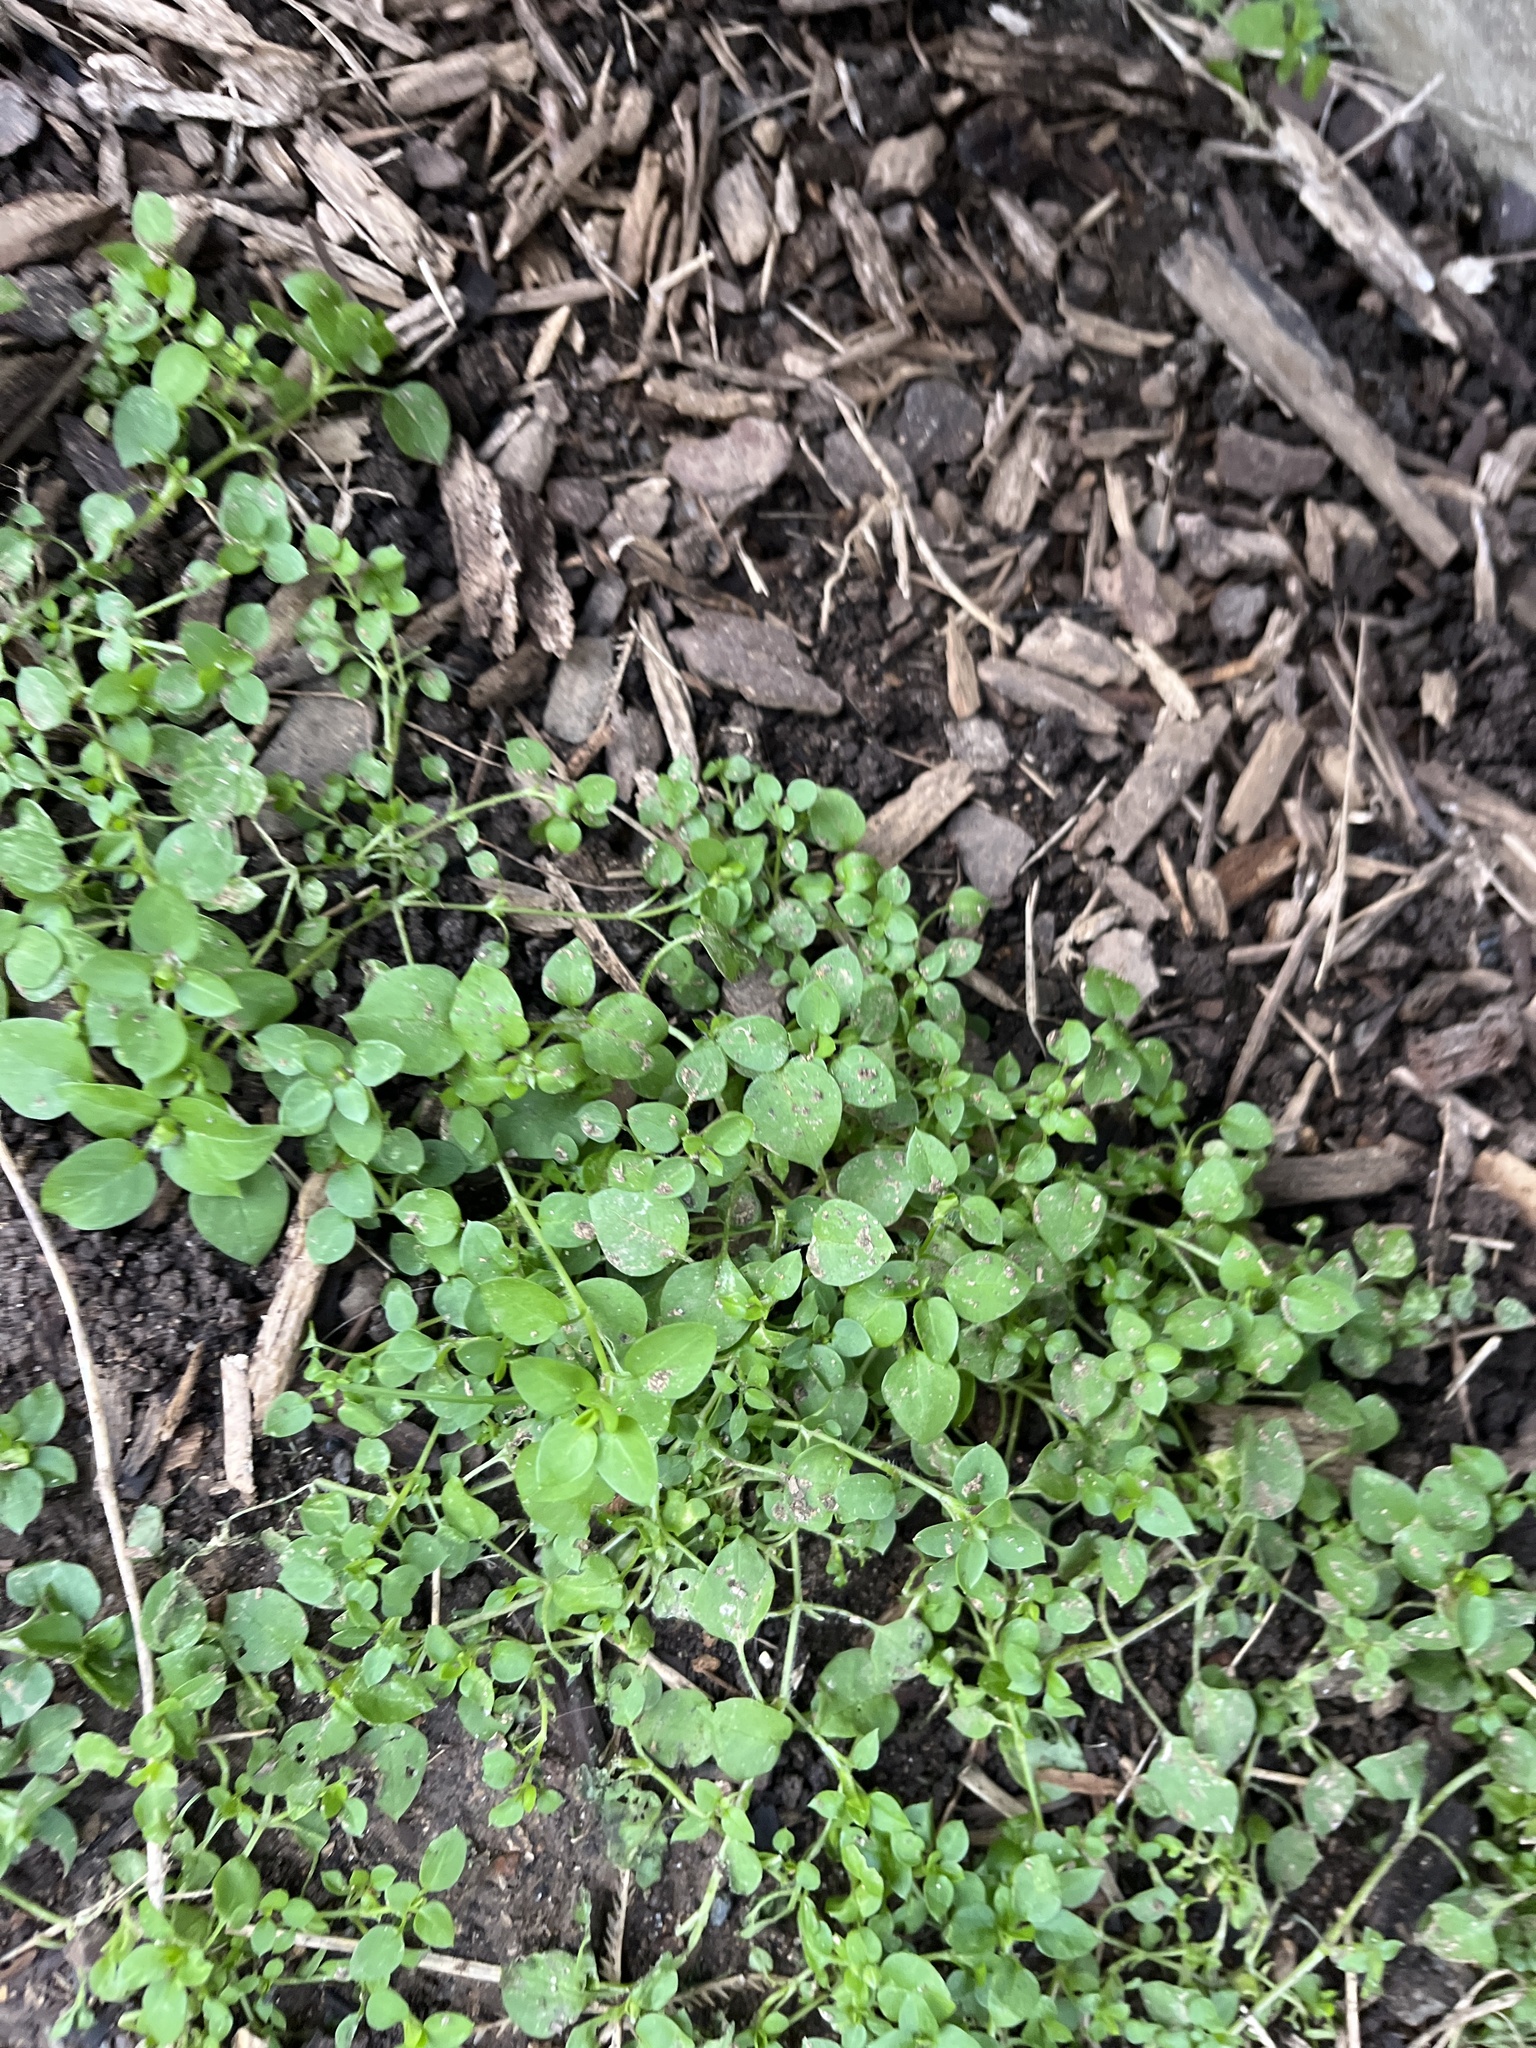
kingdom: Plantae
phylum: Tracheophyta
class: Magnoliopsida
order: Caryophyllales
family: Caryophyllaceae
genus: Stellaria
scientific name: Stellaria media
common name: Common chickweed
